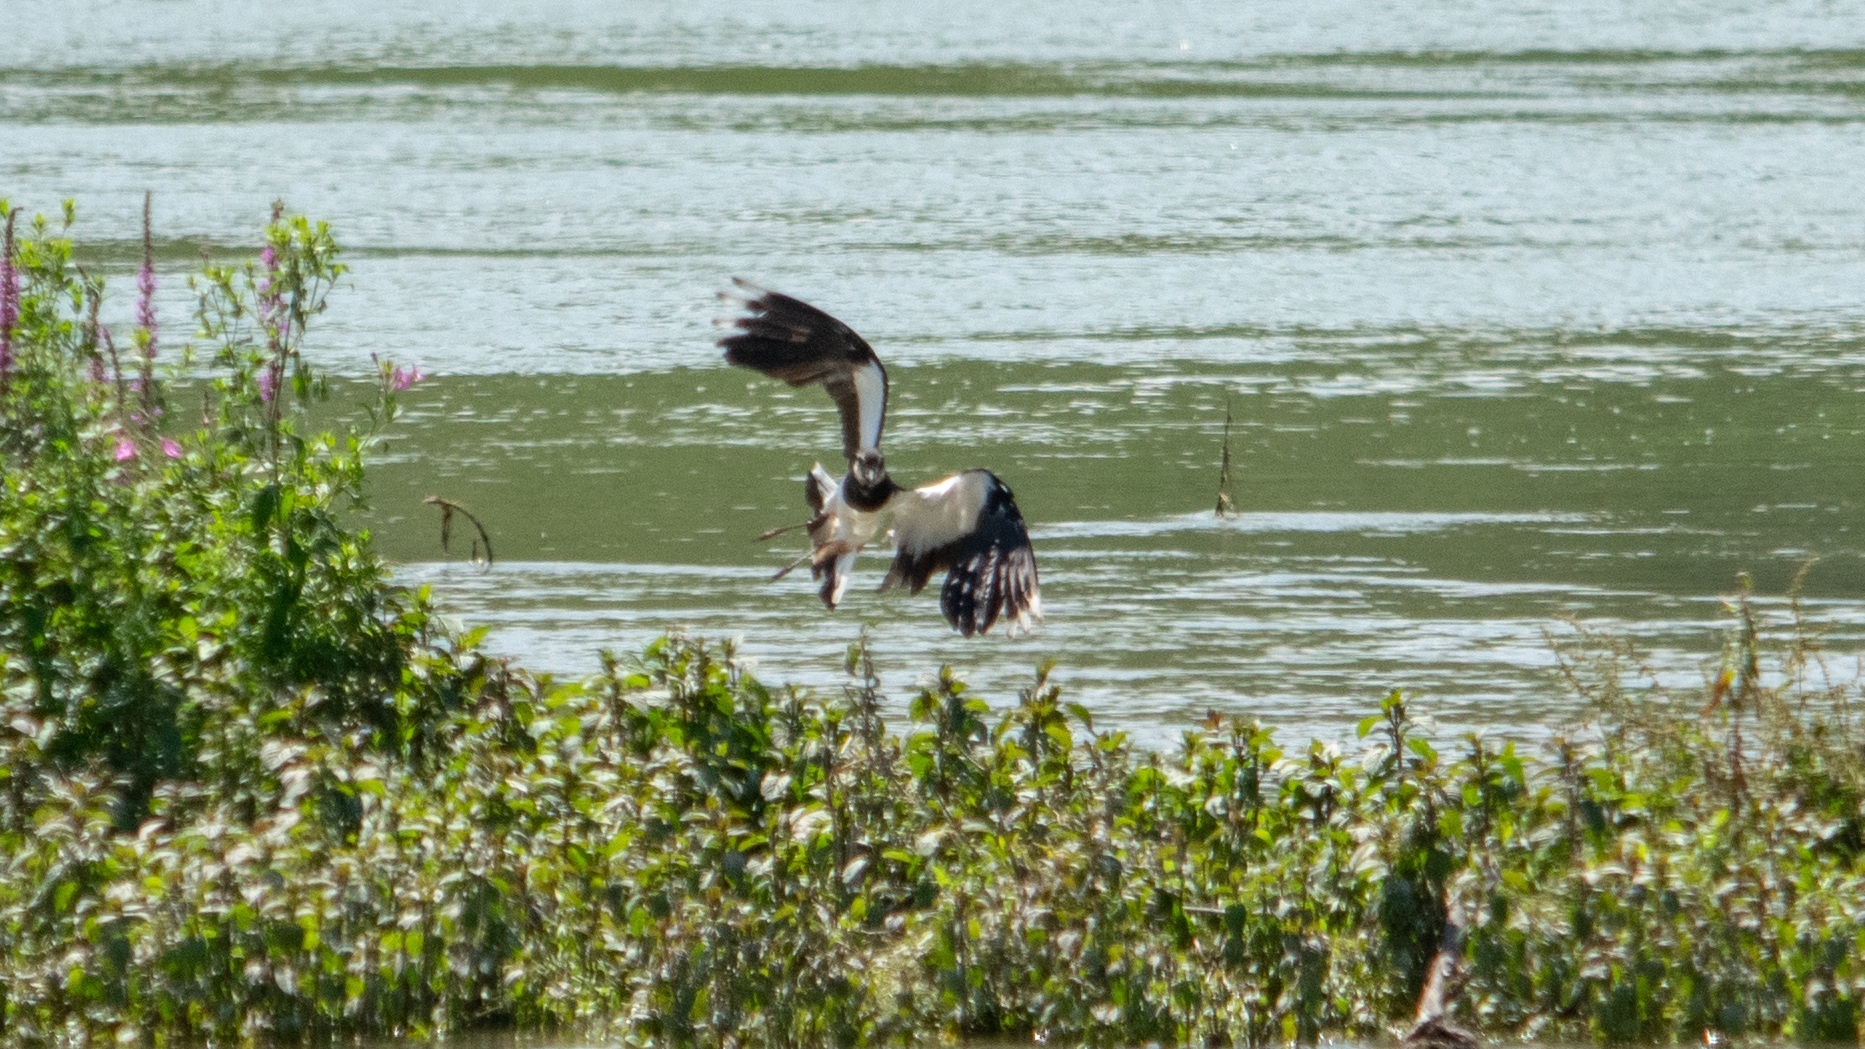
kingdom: Animalia
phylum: Chordata
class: Aves
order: Charadriiformes
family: Charadriidae
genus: Vanellus
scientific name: Vanellus vanellus
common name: Northern lapwing
